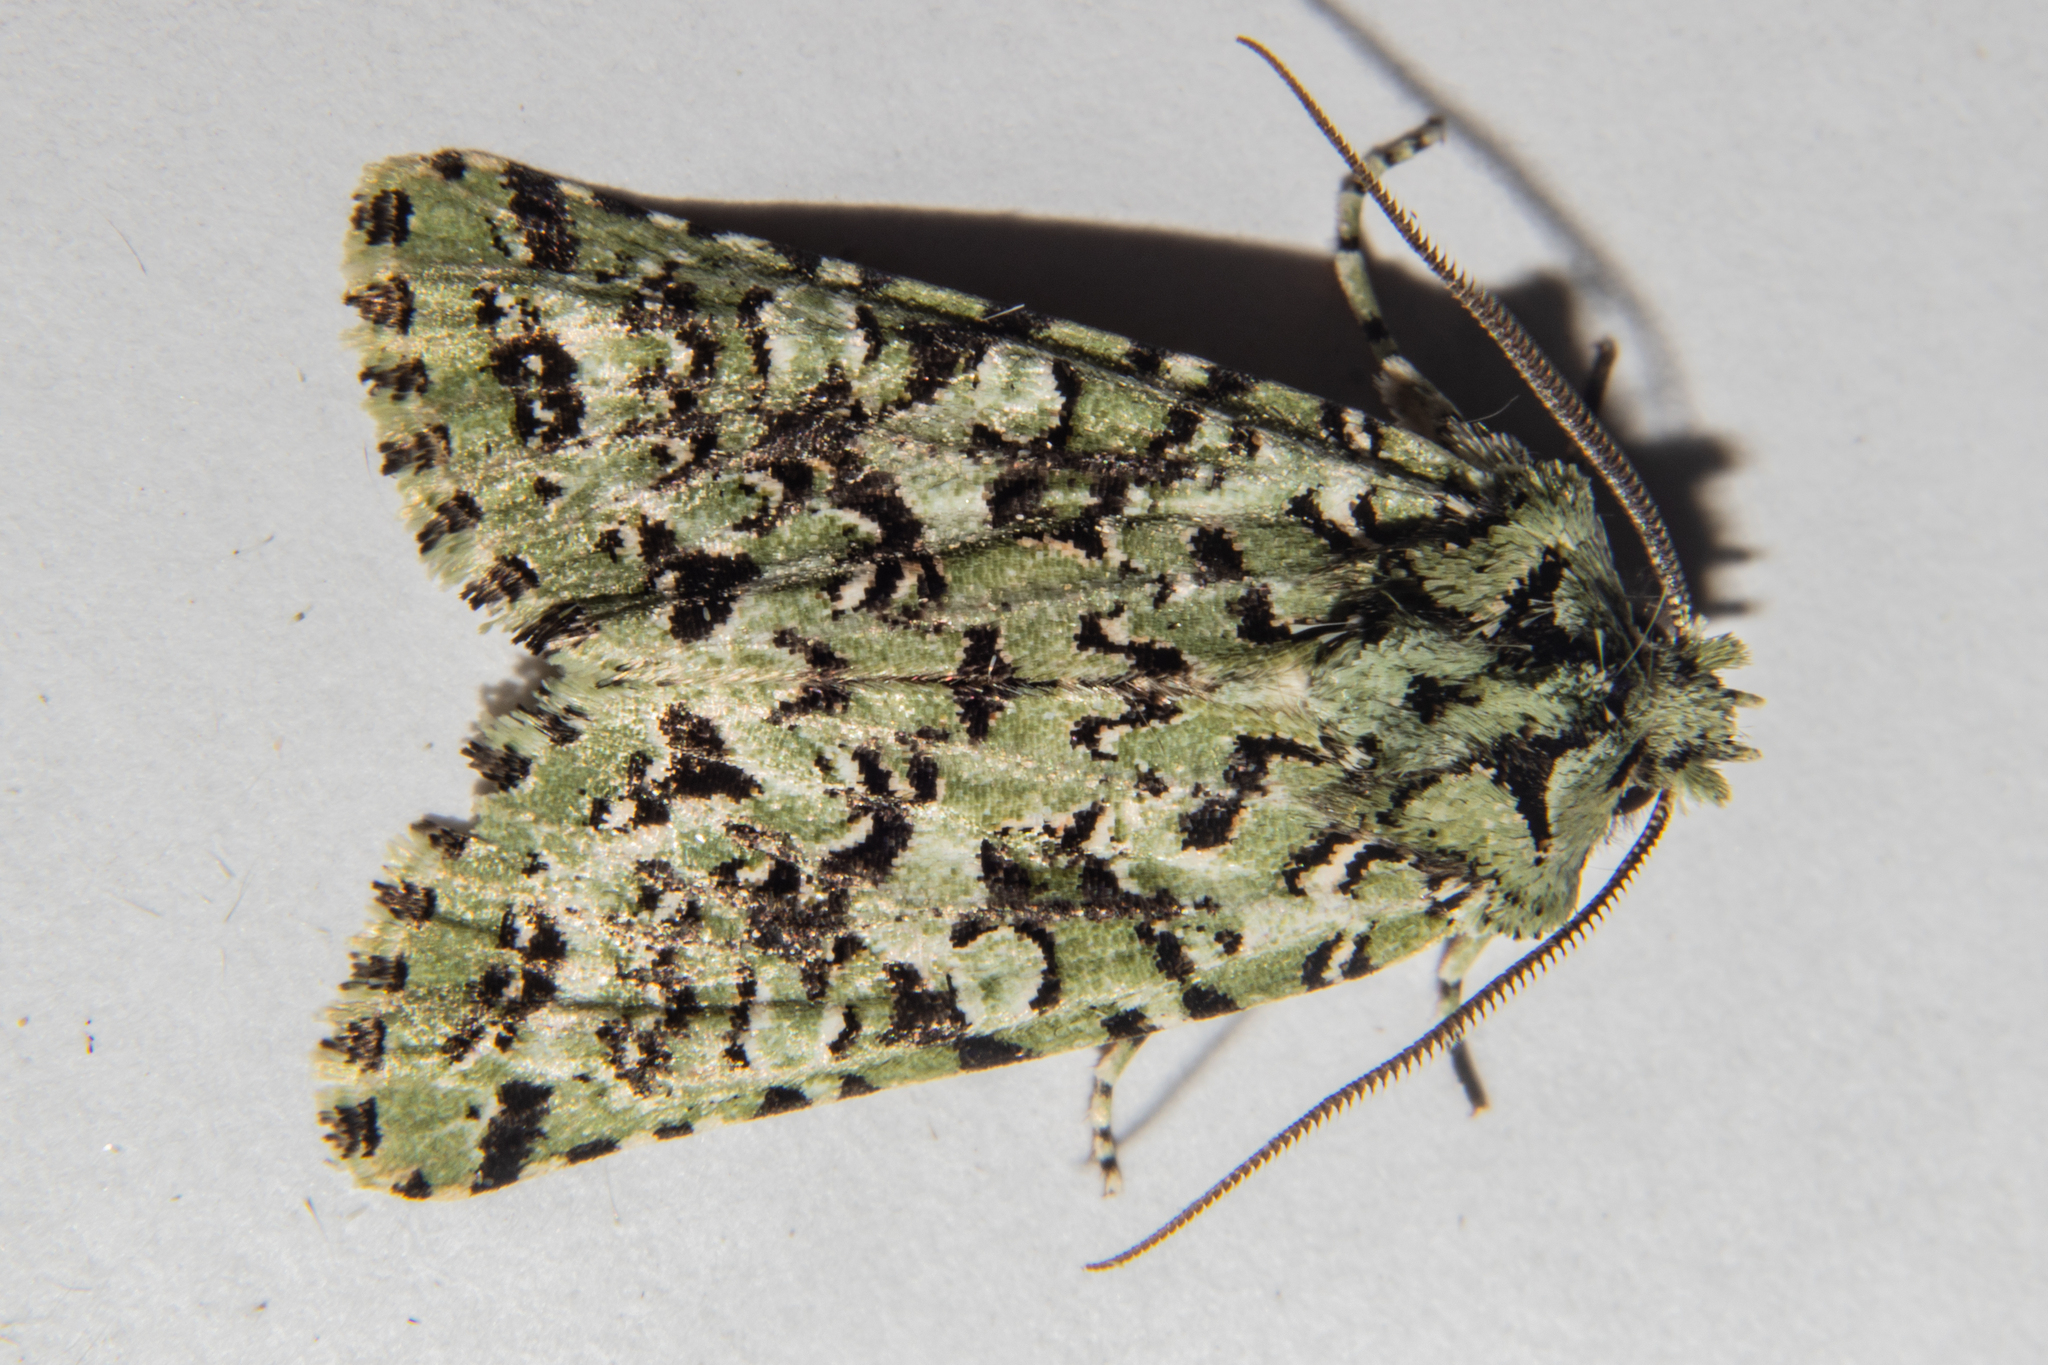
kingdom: Animalia
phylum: Arthropoda
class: Insecta
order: Lepidoptera
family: Noctuidae
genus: Meterana
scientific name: Meterana
